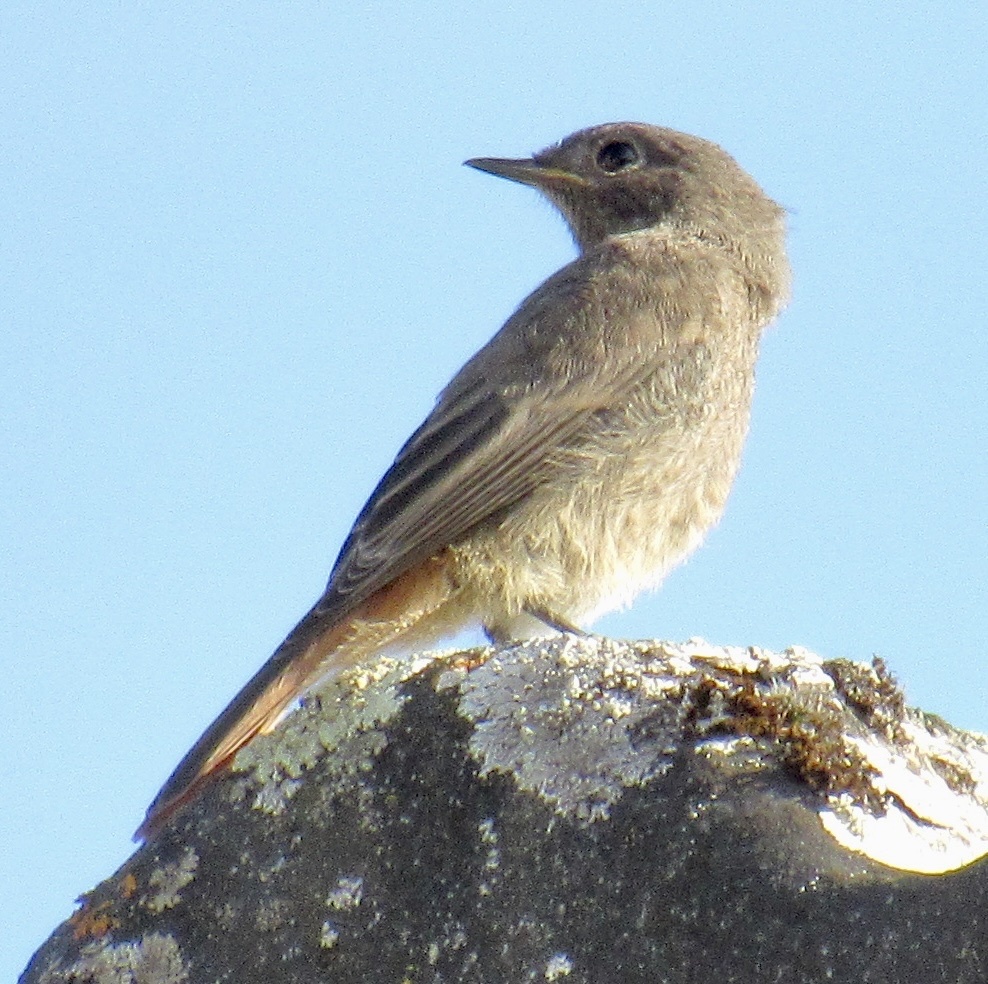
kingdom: Animalia
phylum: Chordata
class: Aves
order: Passeriformes
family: Muscicapidae
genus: Phoenicurus
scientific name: Phoenicurus ochruros
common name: Black redstart
